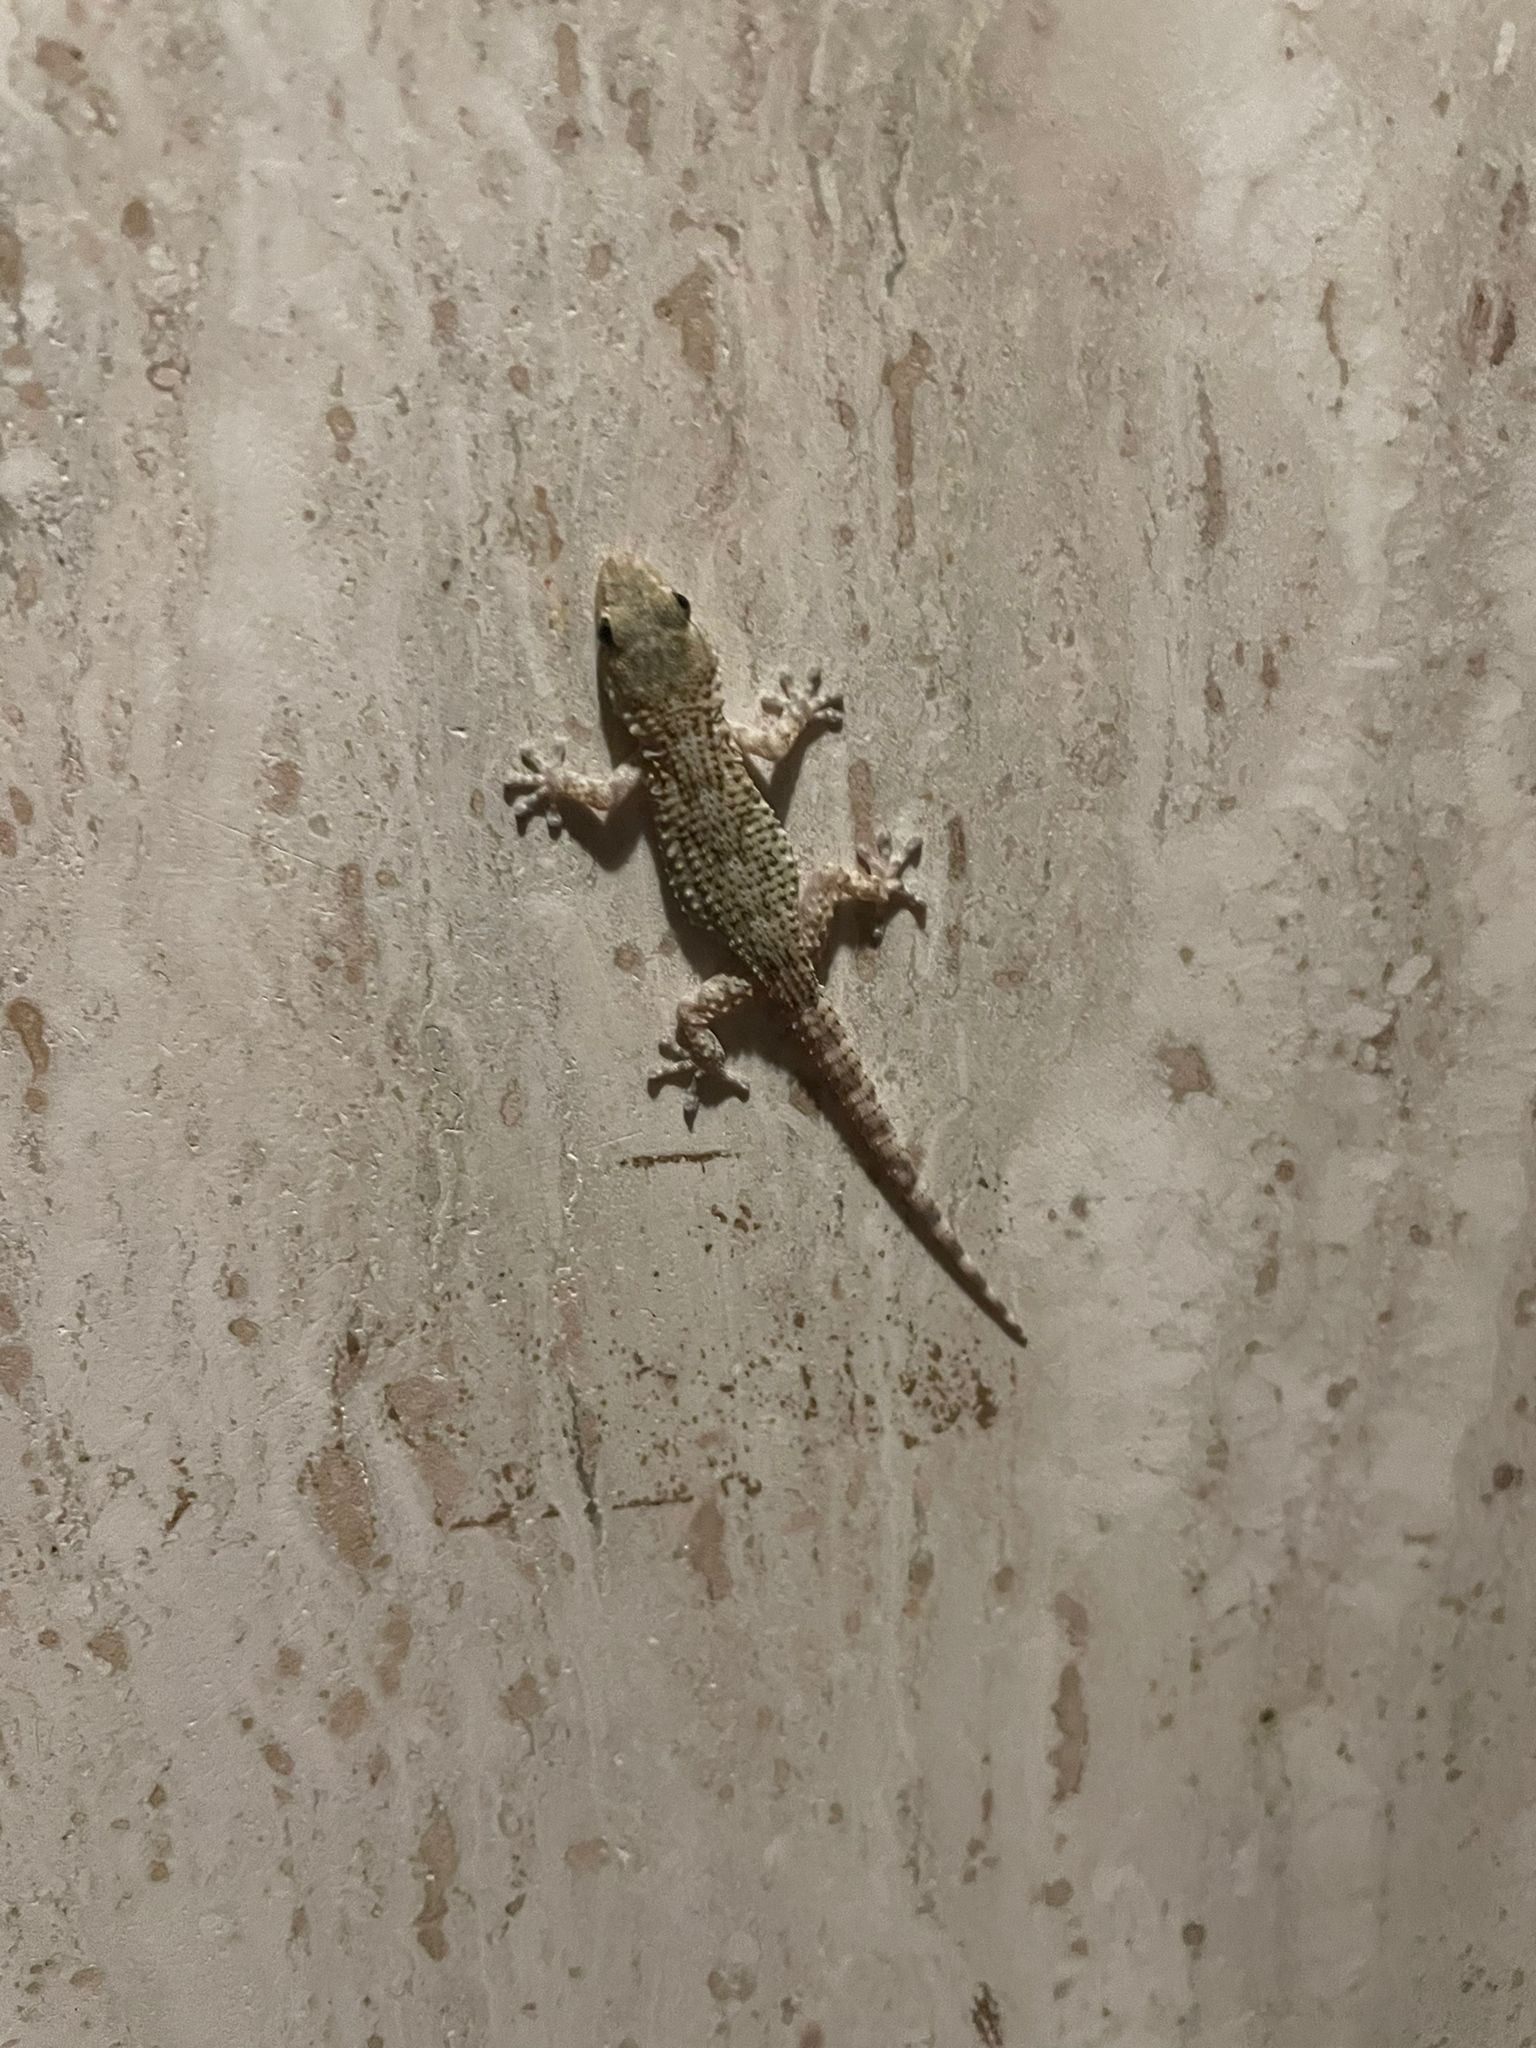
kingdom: Animalia
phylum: Chordata
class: Squamata
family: Phyllodactylidae
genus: Tarentola
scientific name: Tarentola mauritanica
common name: Moorish gecko
